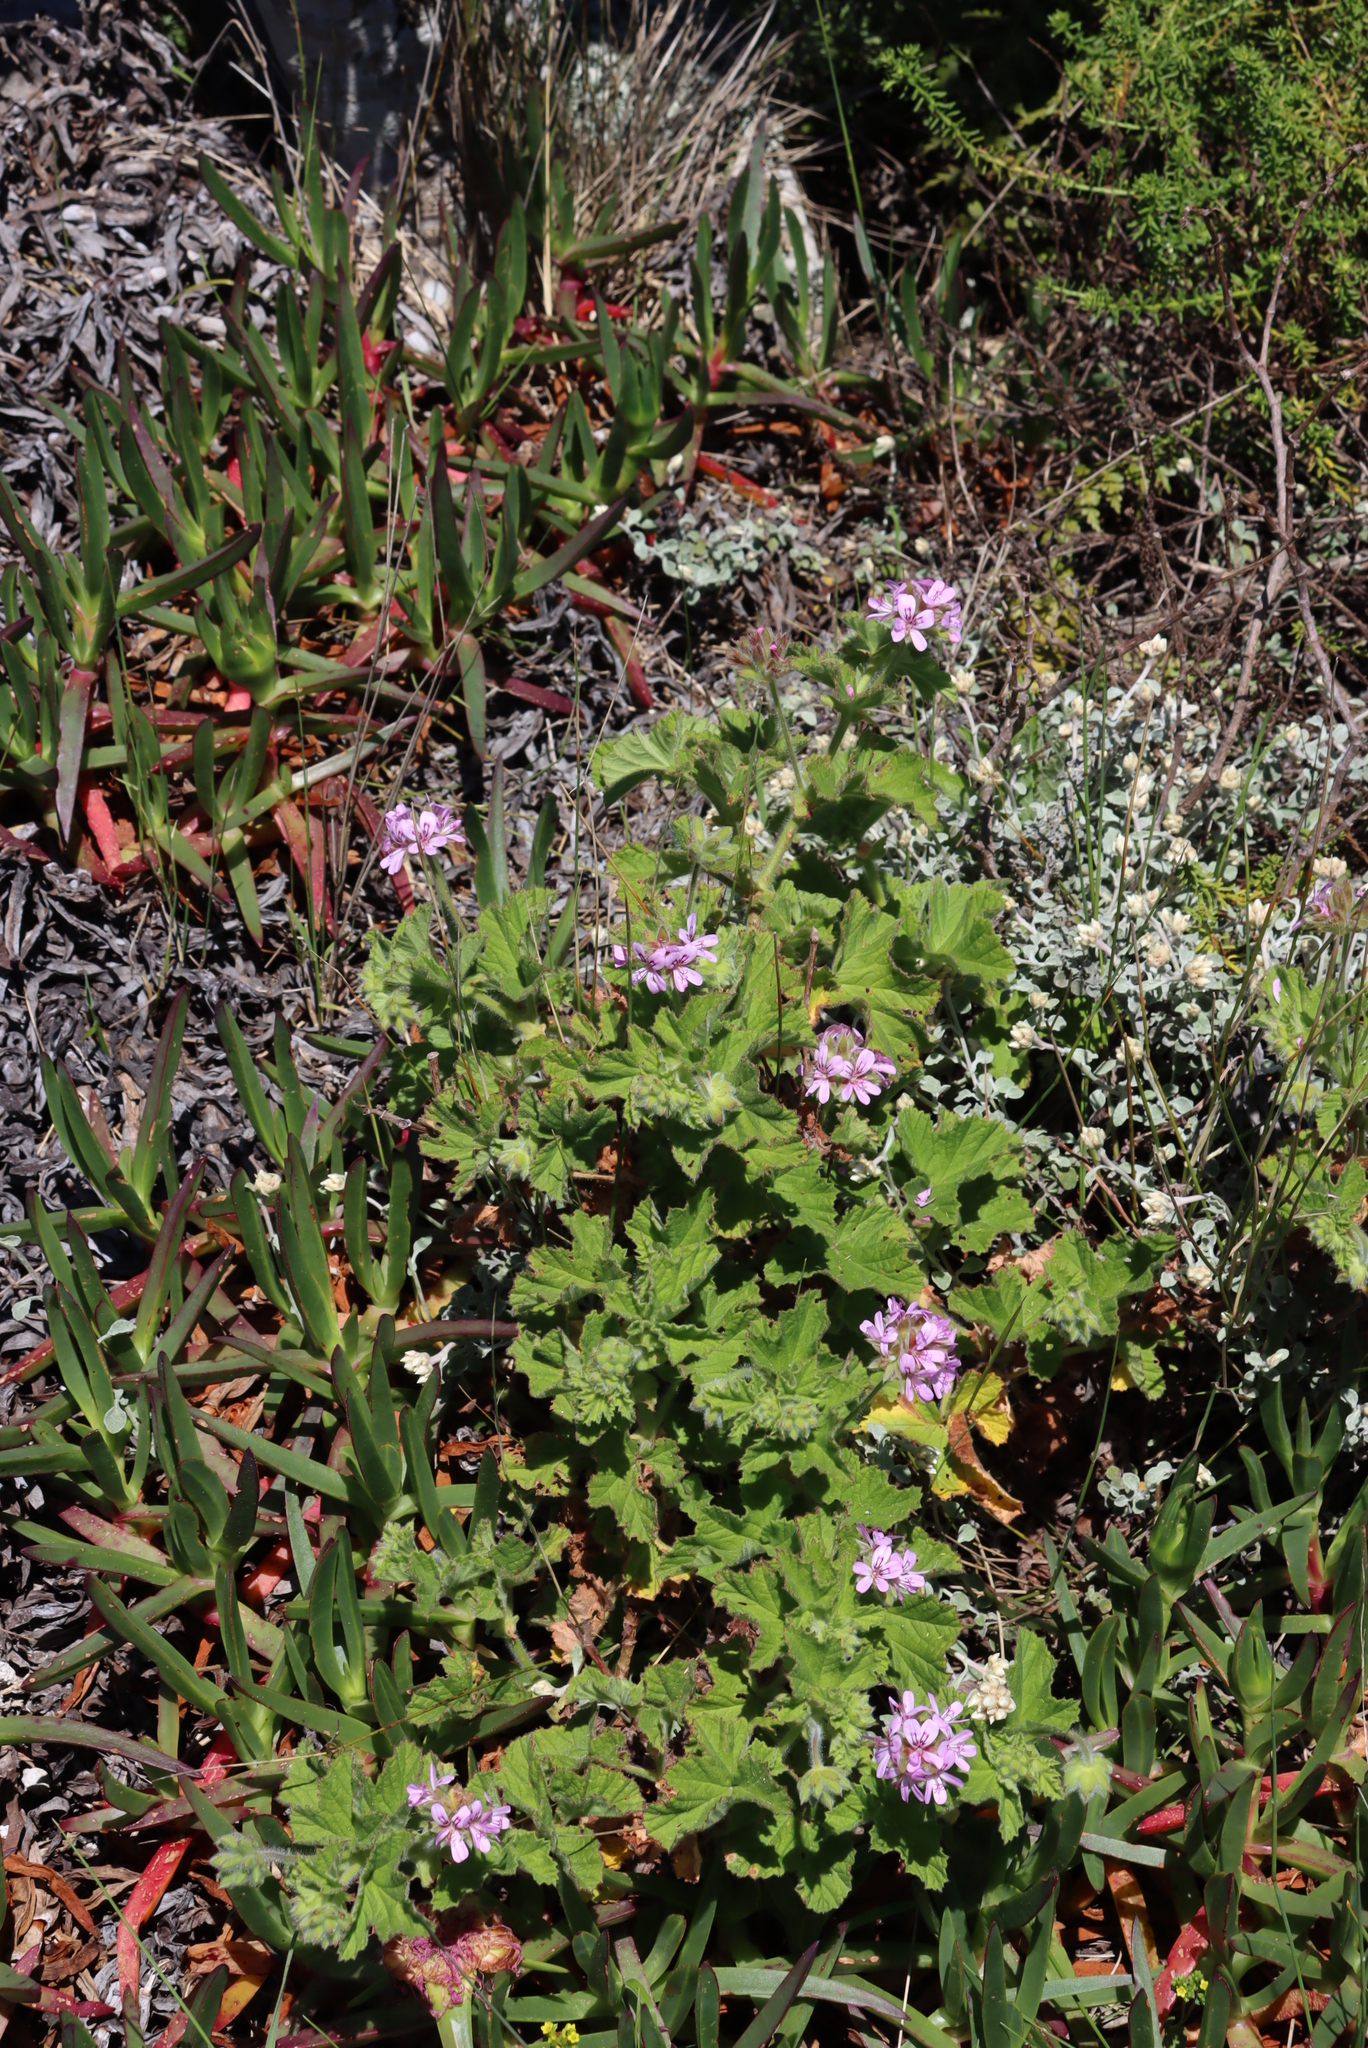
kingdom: Plantae
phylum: Tracheophyta
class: Magnoliopsida
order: Geraniales
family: Geraniaceae
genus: Pelargonium
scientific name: Pelargonium capitatum
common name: Rose scented geranium
